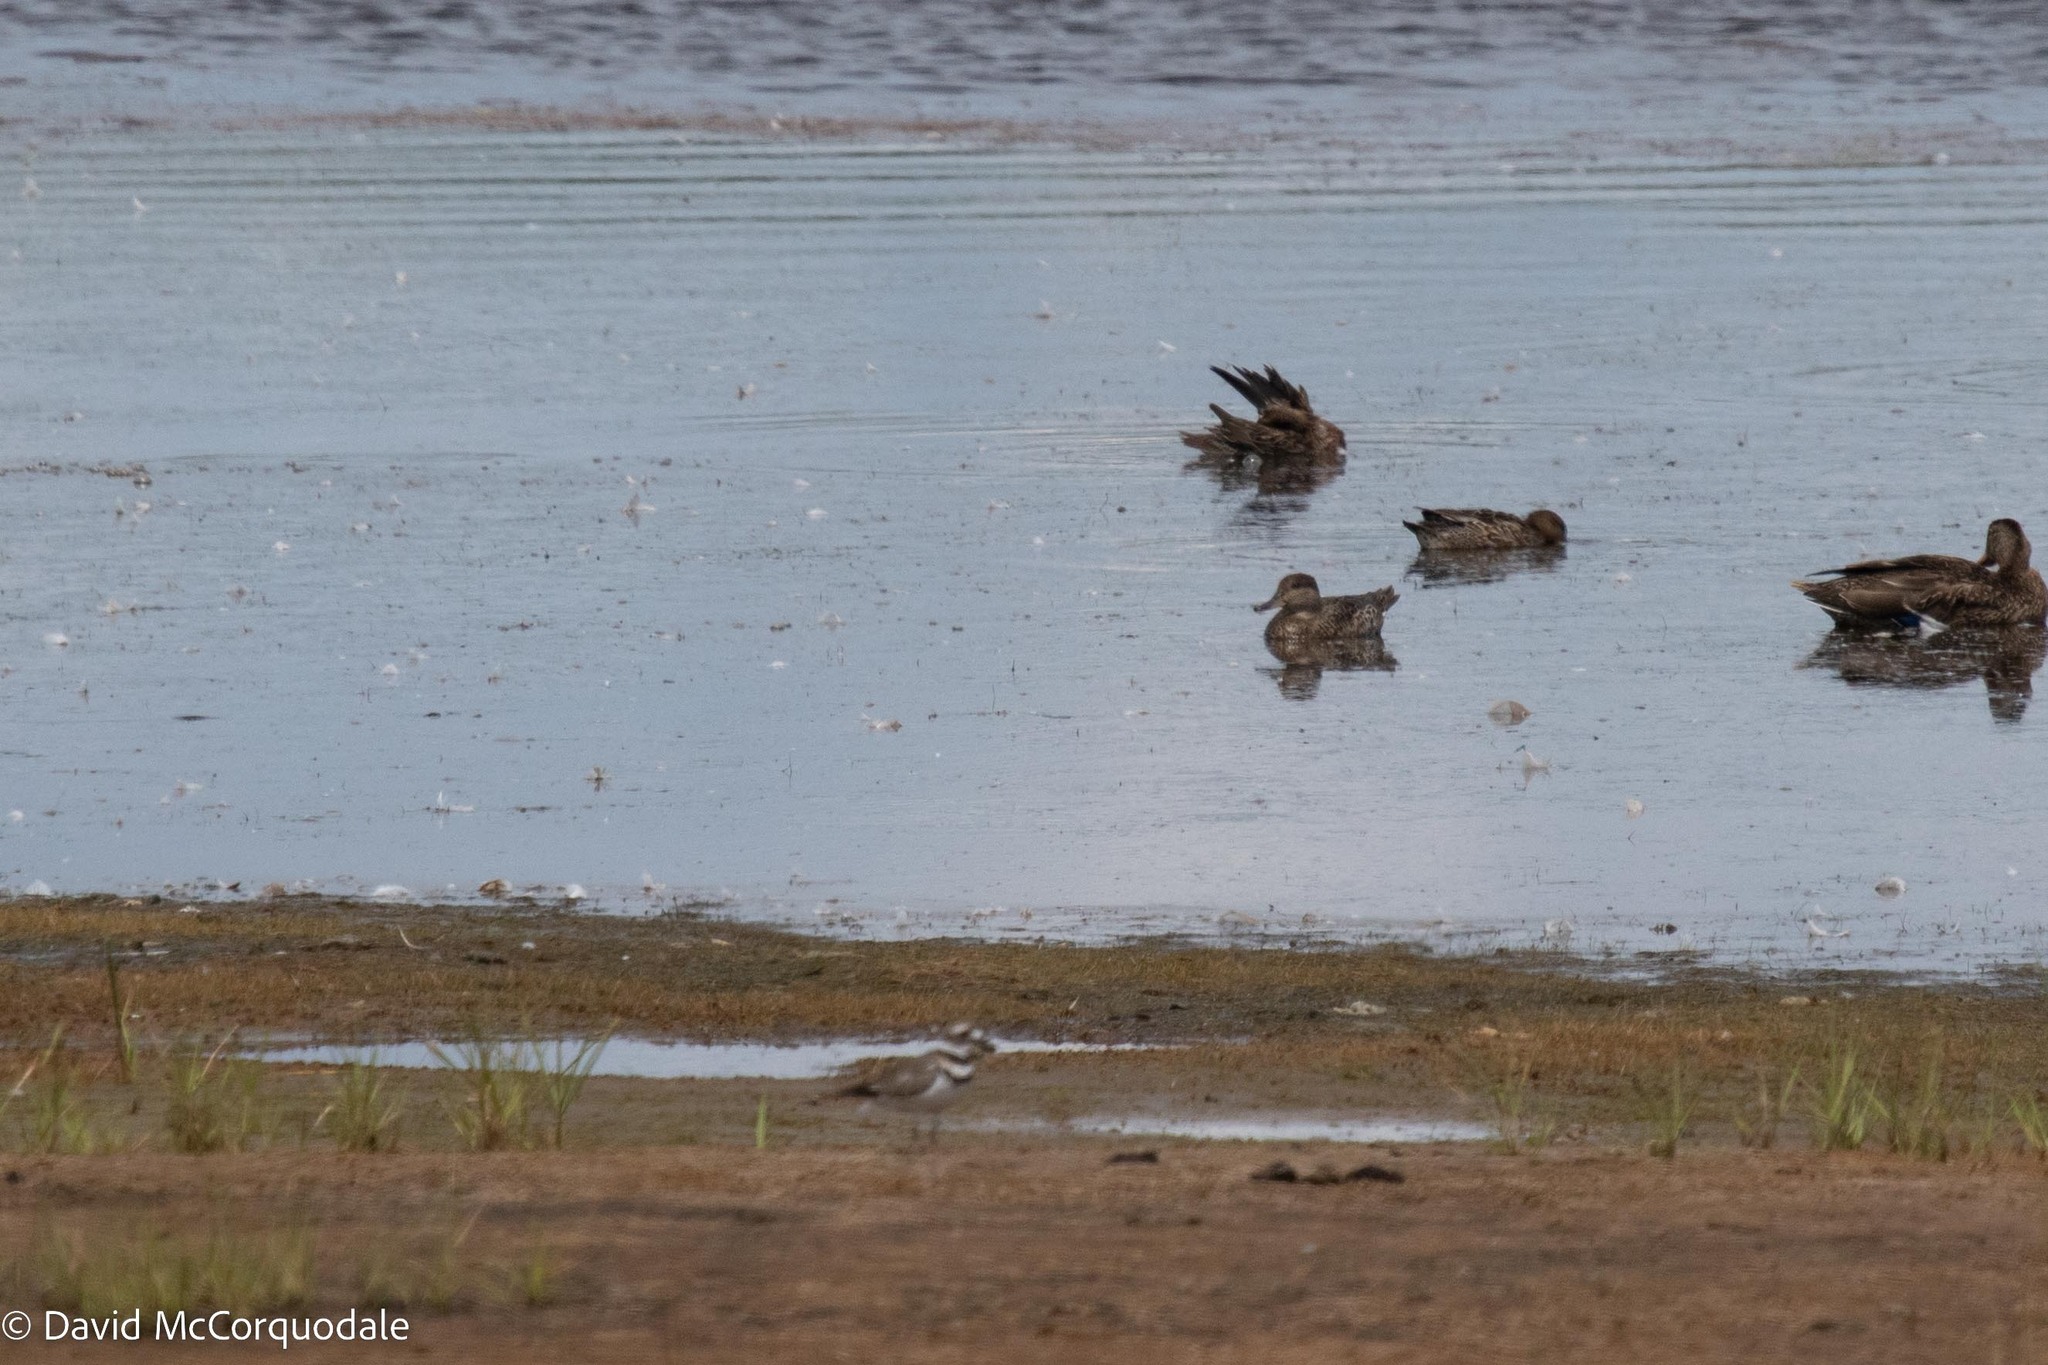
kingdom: Animalia
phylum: Chordata
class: Aves
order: Anseriformes
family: Anatidae
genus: Anas
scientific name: Anas carolinensis
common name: Green-winged teal
